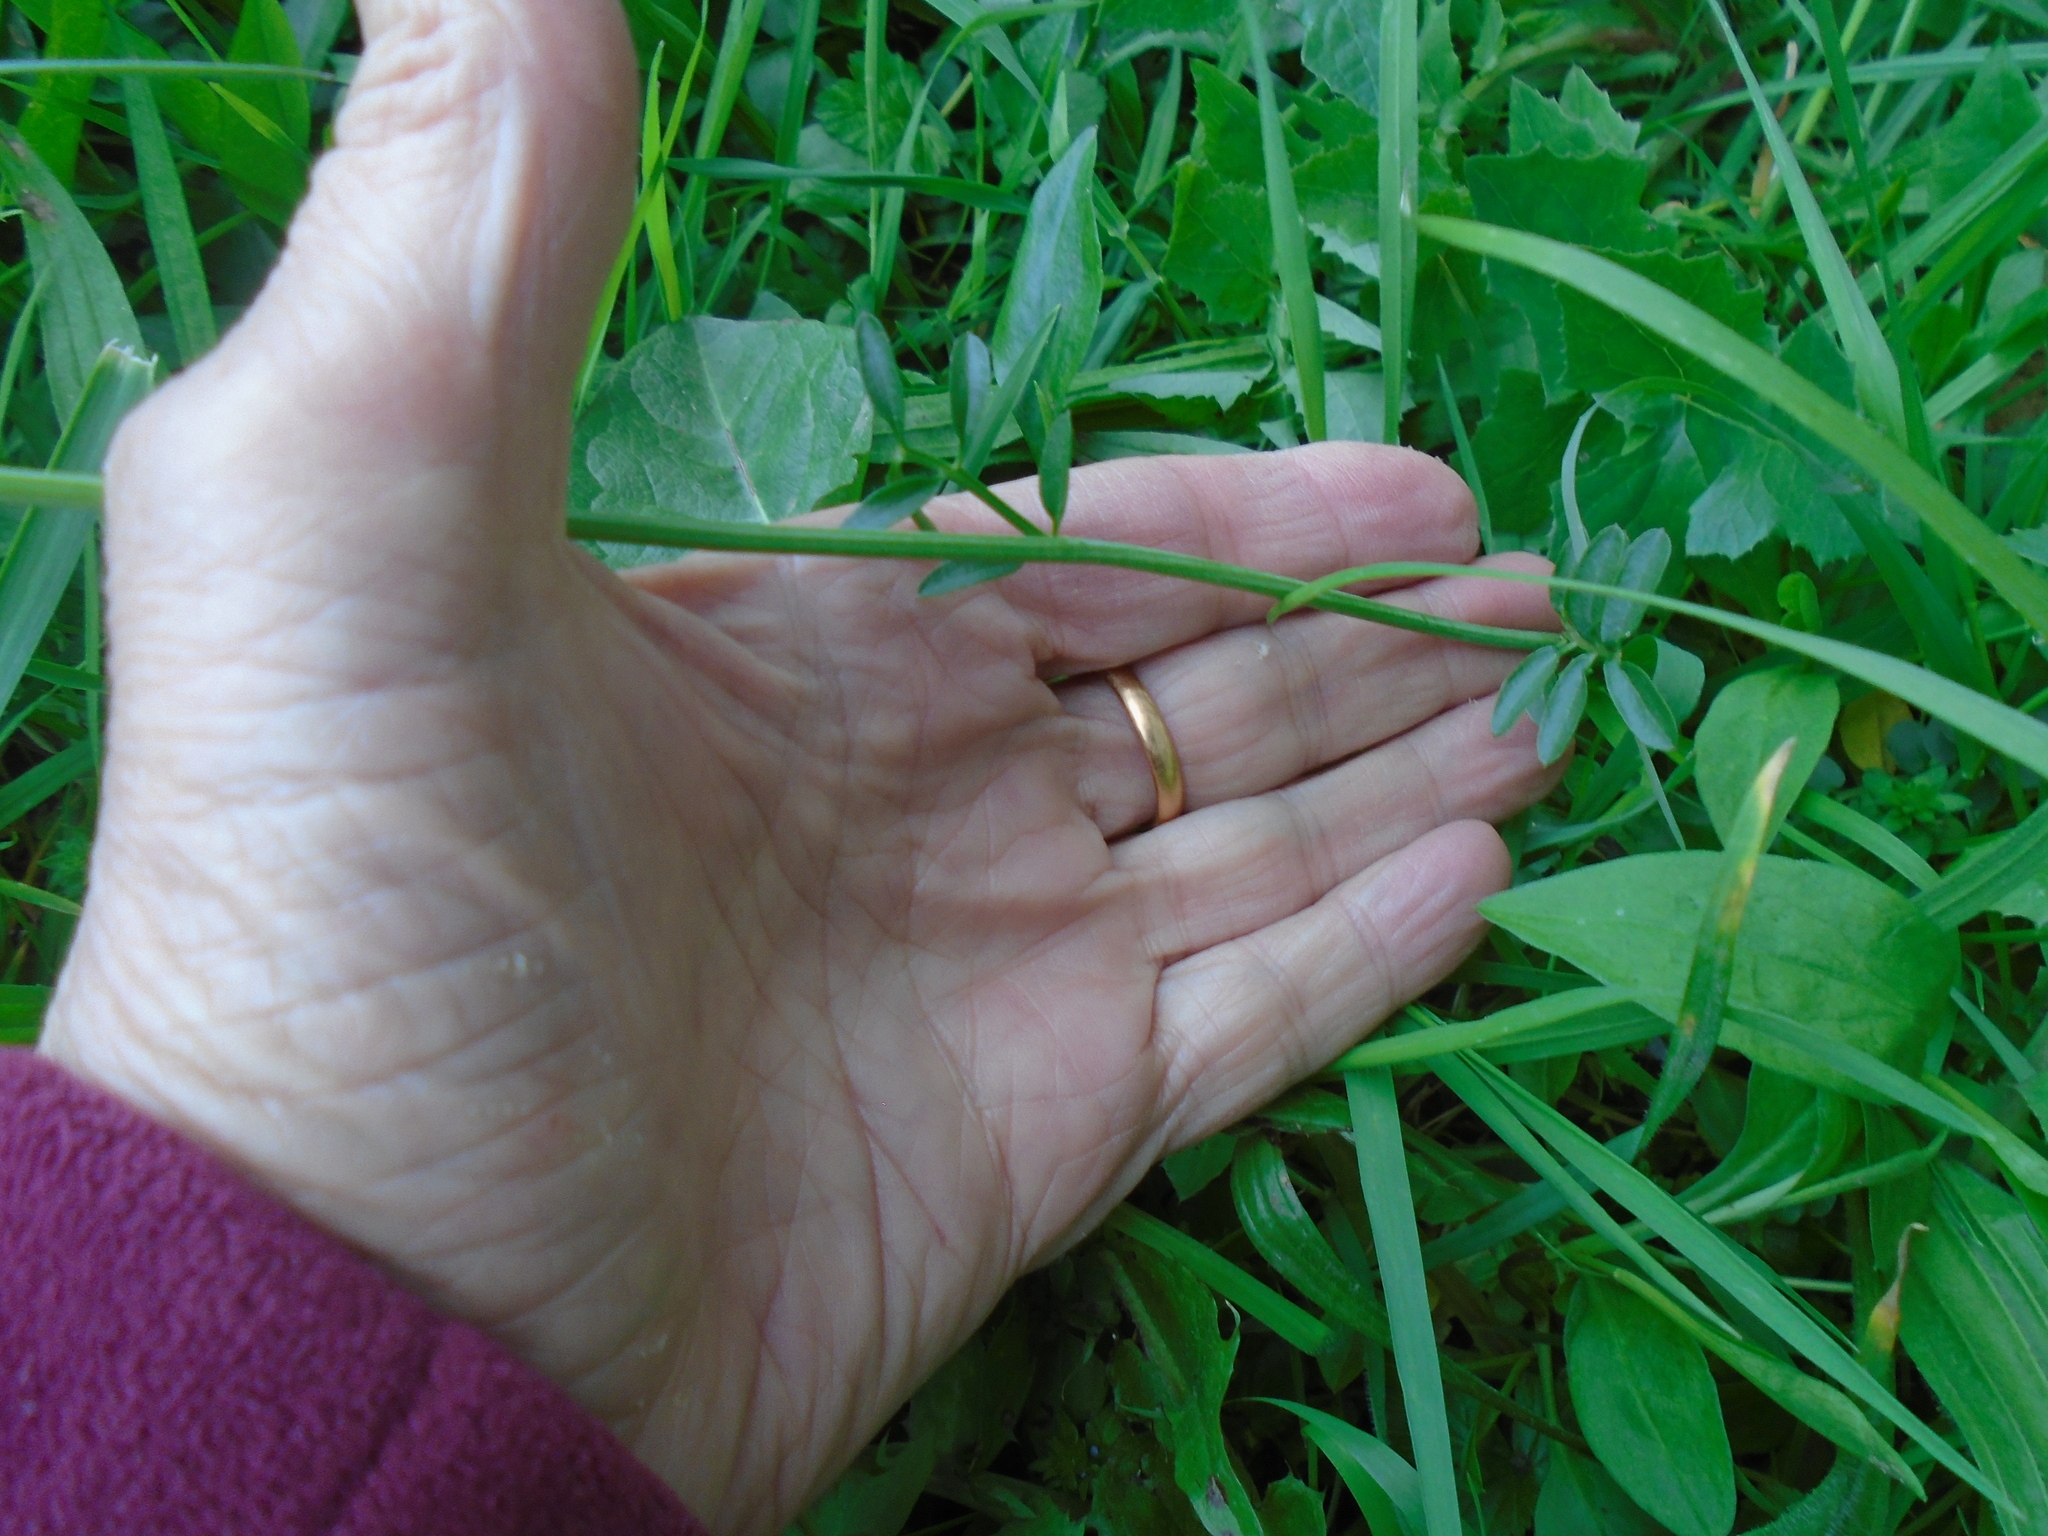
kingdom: Plantae
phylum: Tracheophyta
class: Magnoliopsida
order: Brassicales
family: Brassicaceae
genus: Cardamine
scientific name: Cardamine pratensis
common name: Cuckoo flower
